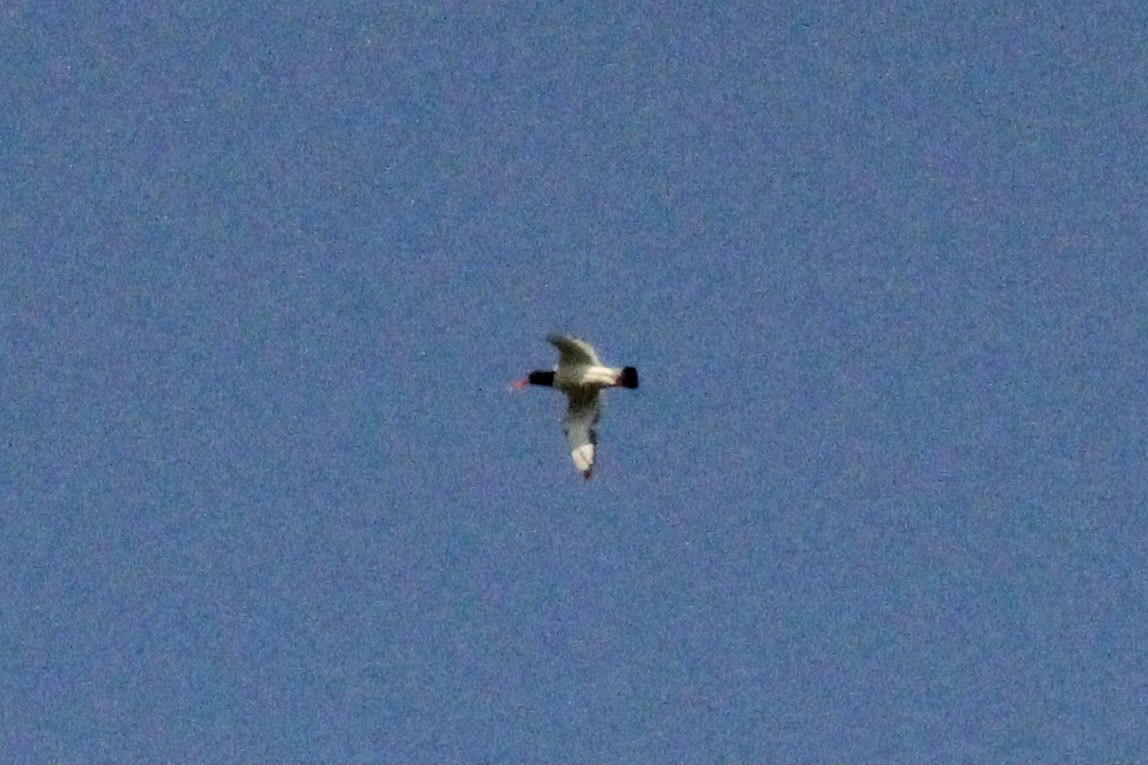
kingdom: Animalia
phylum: Chordata
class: Aves
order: Charadriiformes
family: Haematopodidae
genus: Haematopus
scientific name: Haematopus ostralegus
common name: Eurasian oystercatcher
